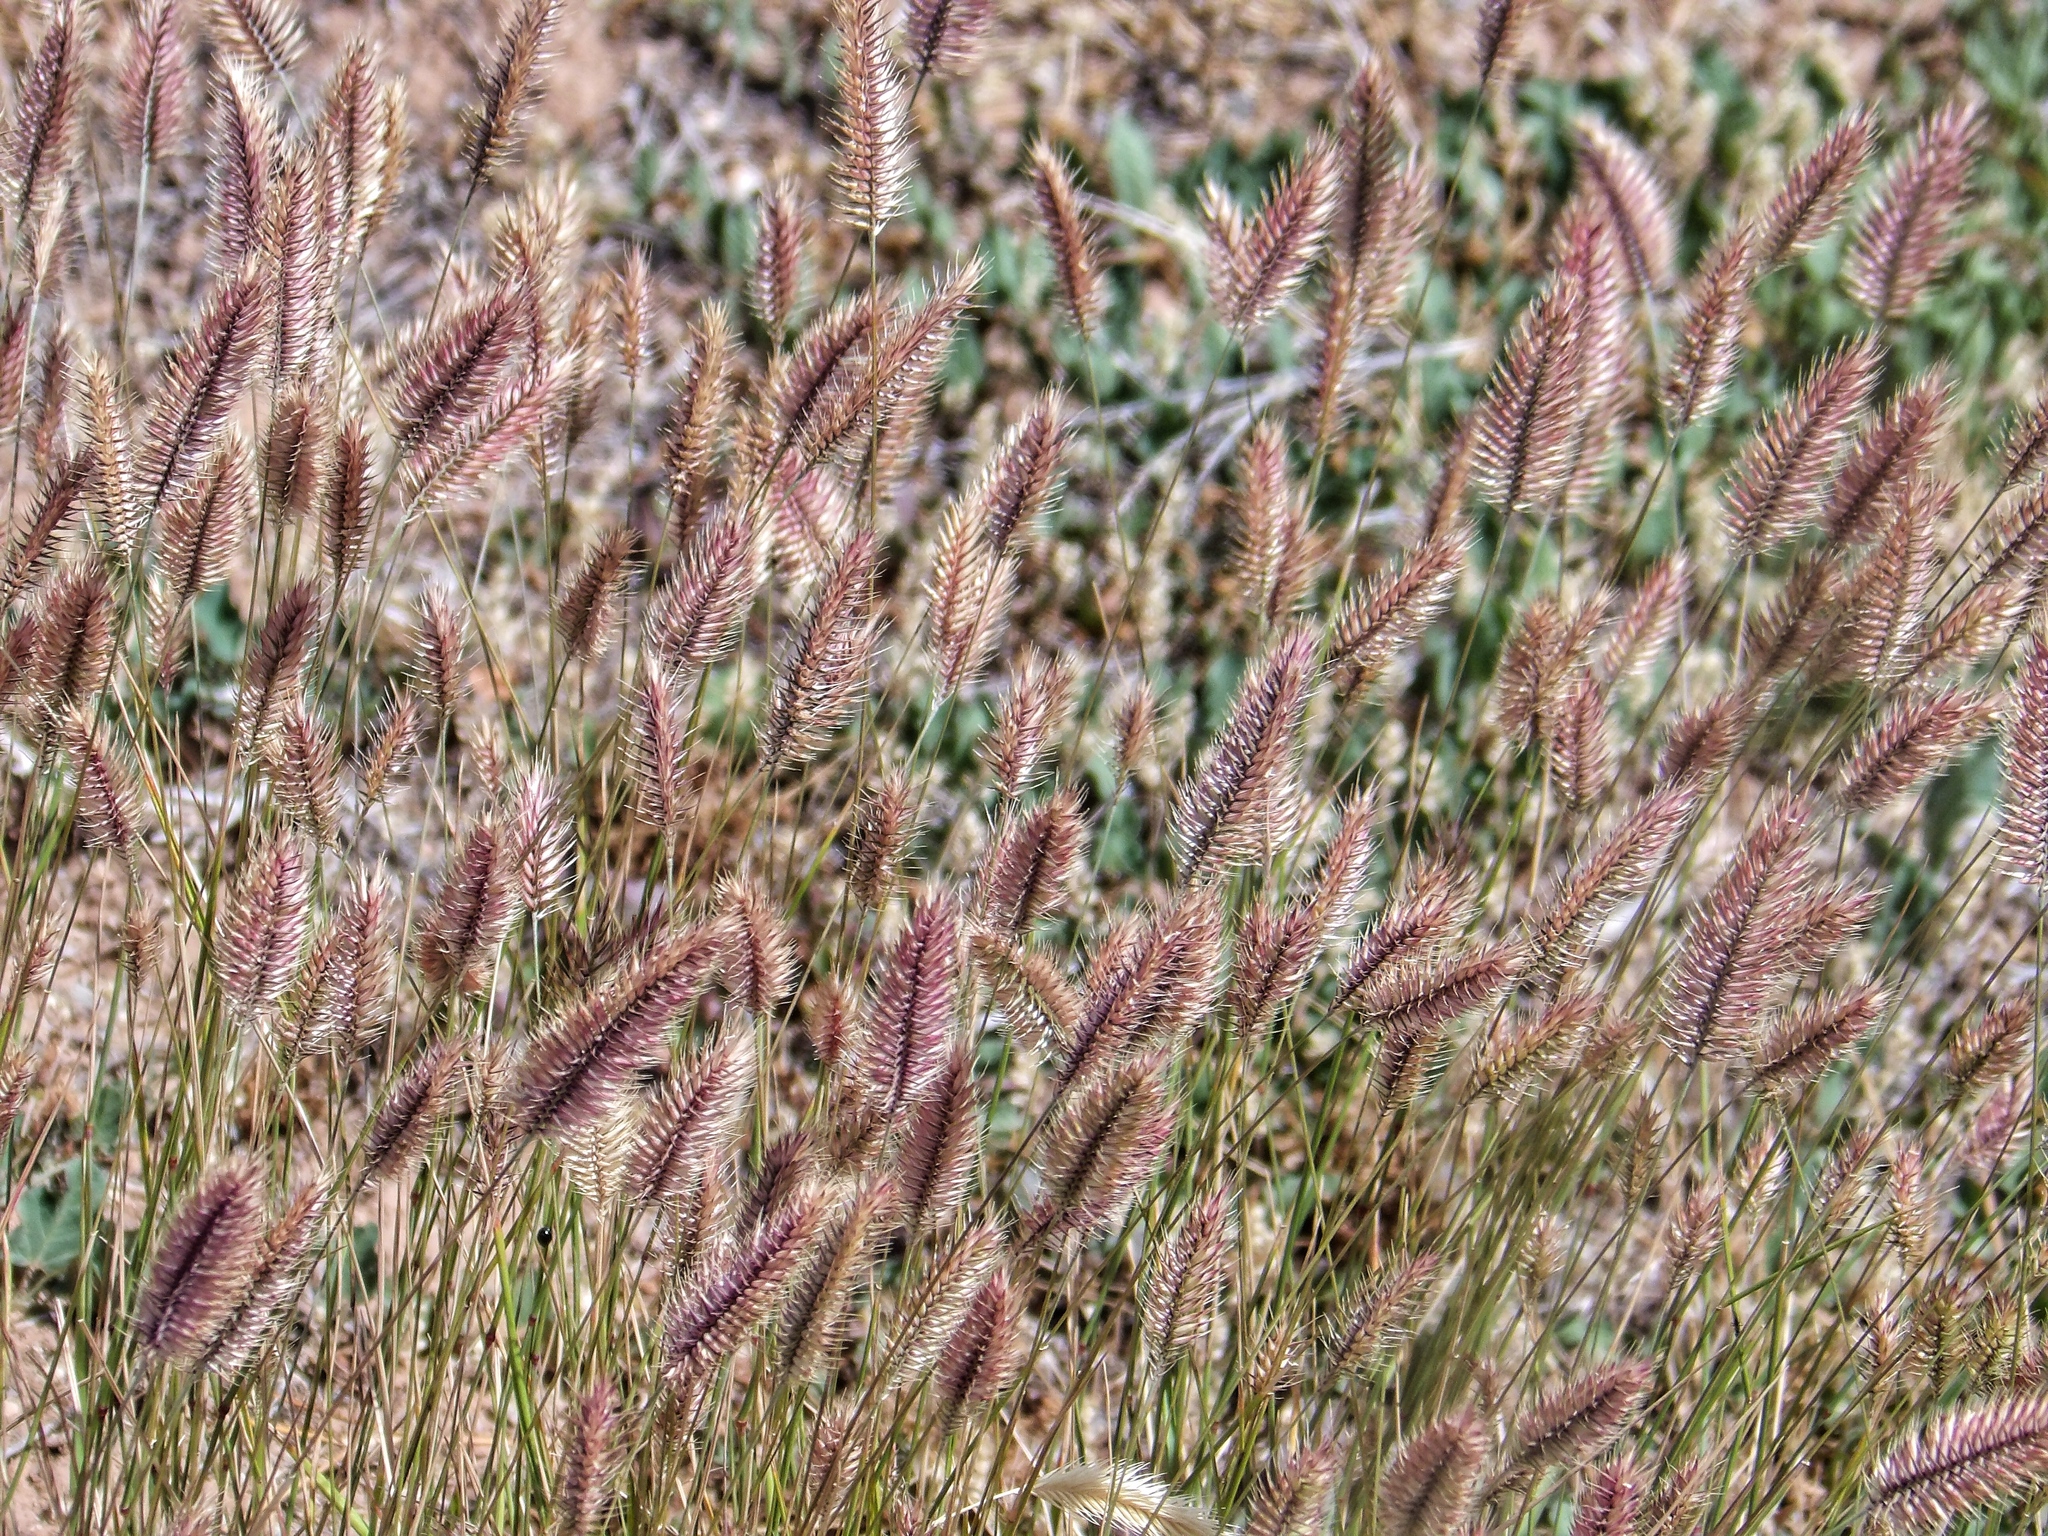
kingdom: Plantae
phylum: Tracheophyta
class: Liliopsida
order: Poales
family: Poaceae
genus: Agropyron
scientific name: Agropyron cristatum
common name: Crested wheatgrass
